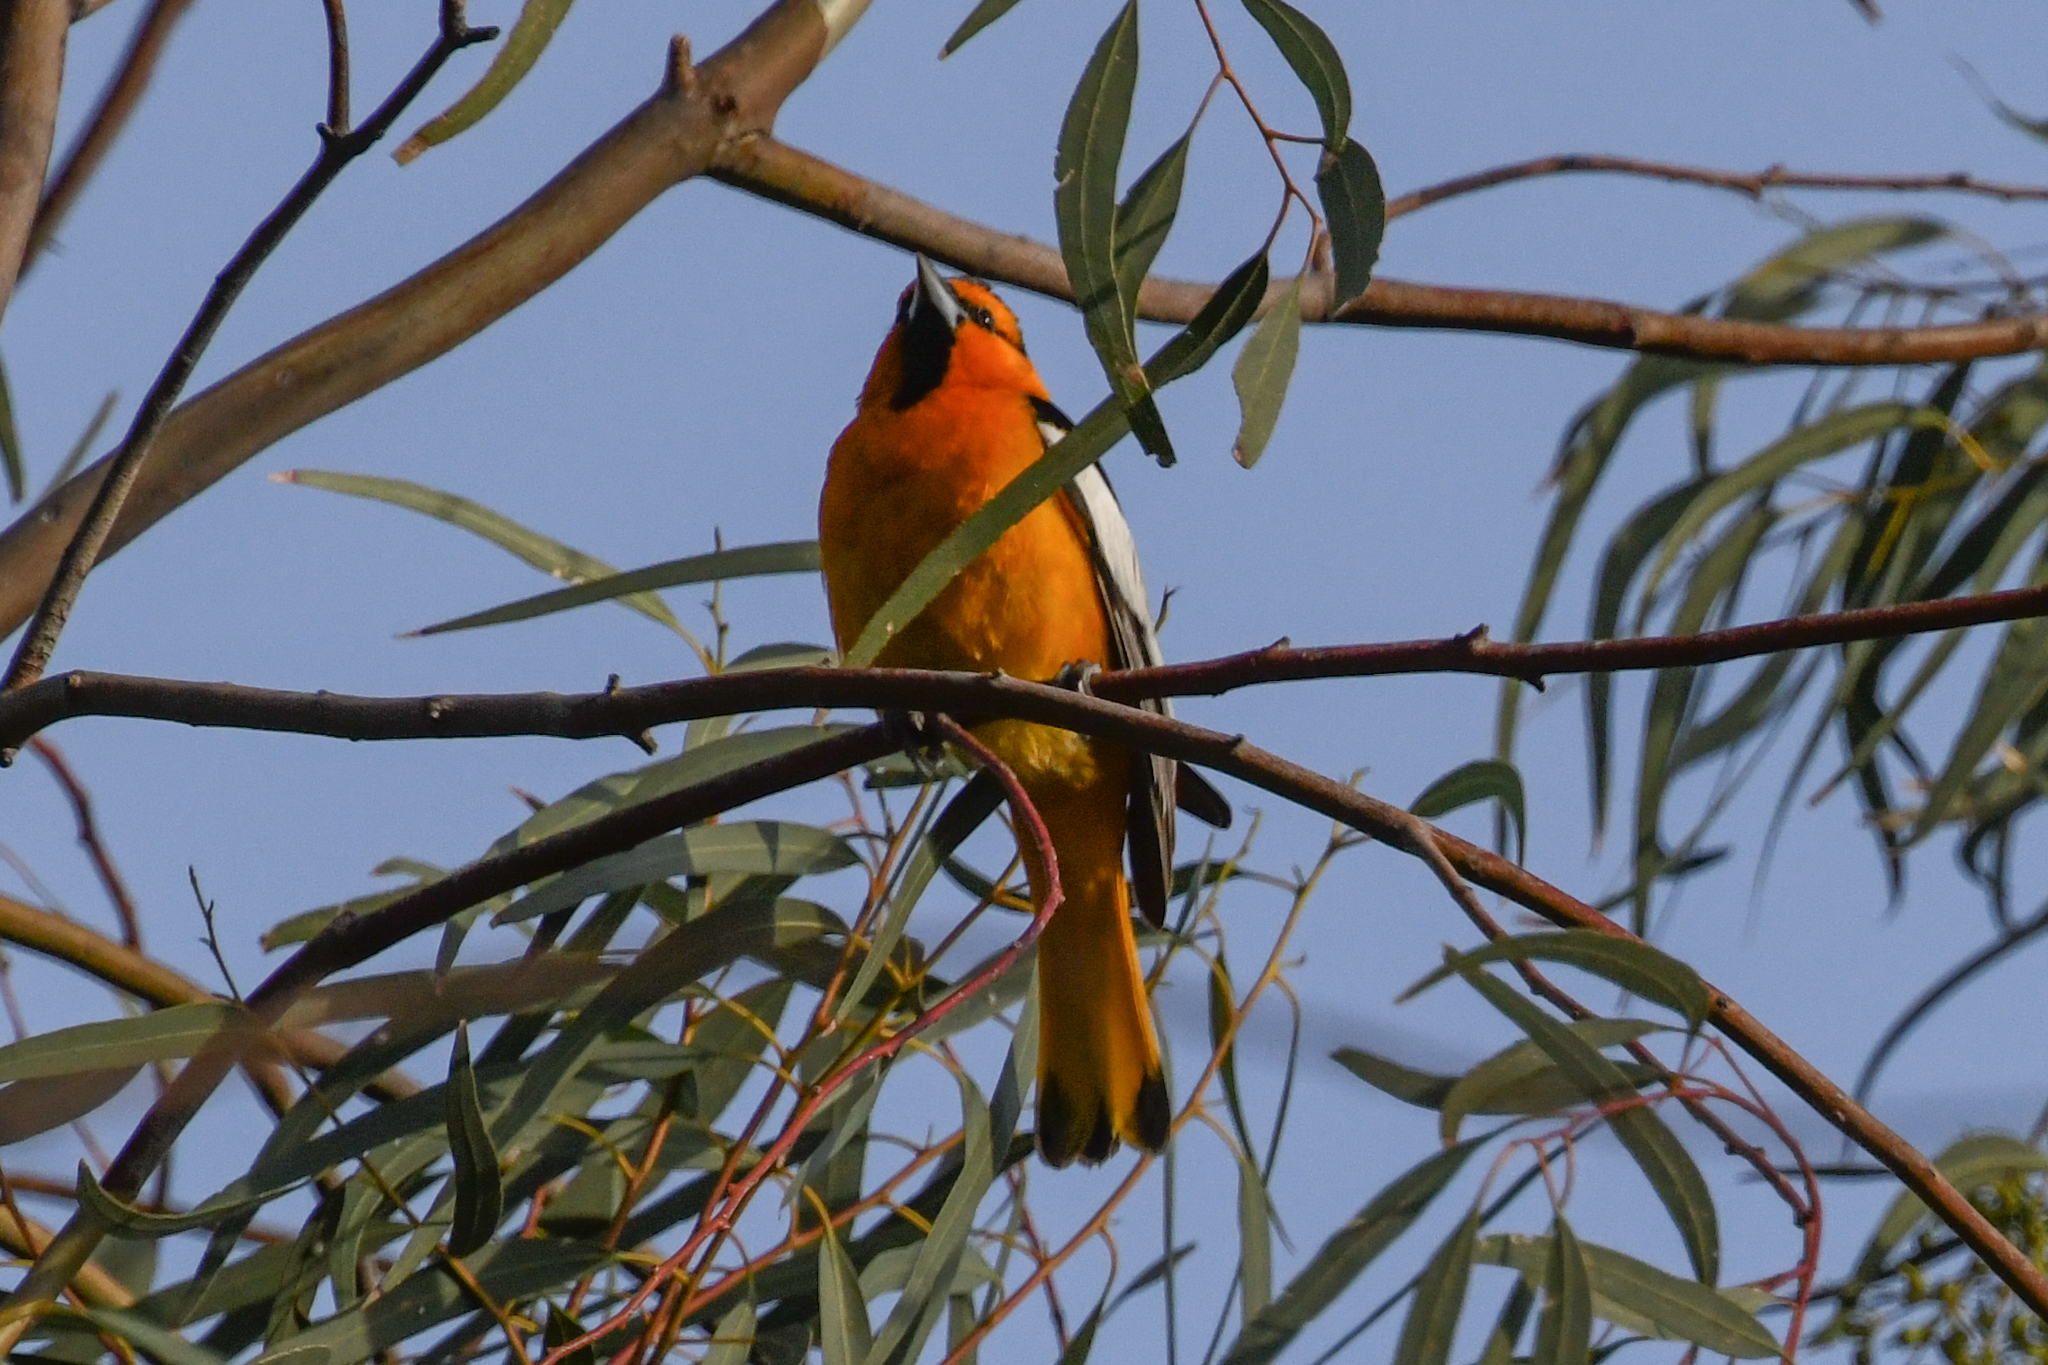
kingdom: Animalia
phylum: Chordata
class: Aves
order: Passeriformes
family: Icteridae
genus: Icterus
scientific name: Icterus bullockii
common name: Bullock's oriole
